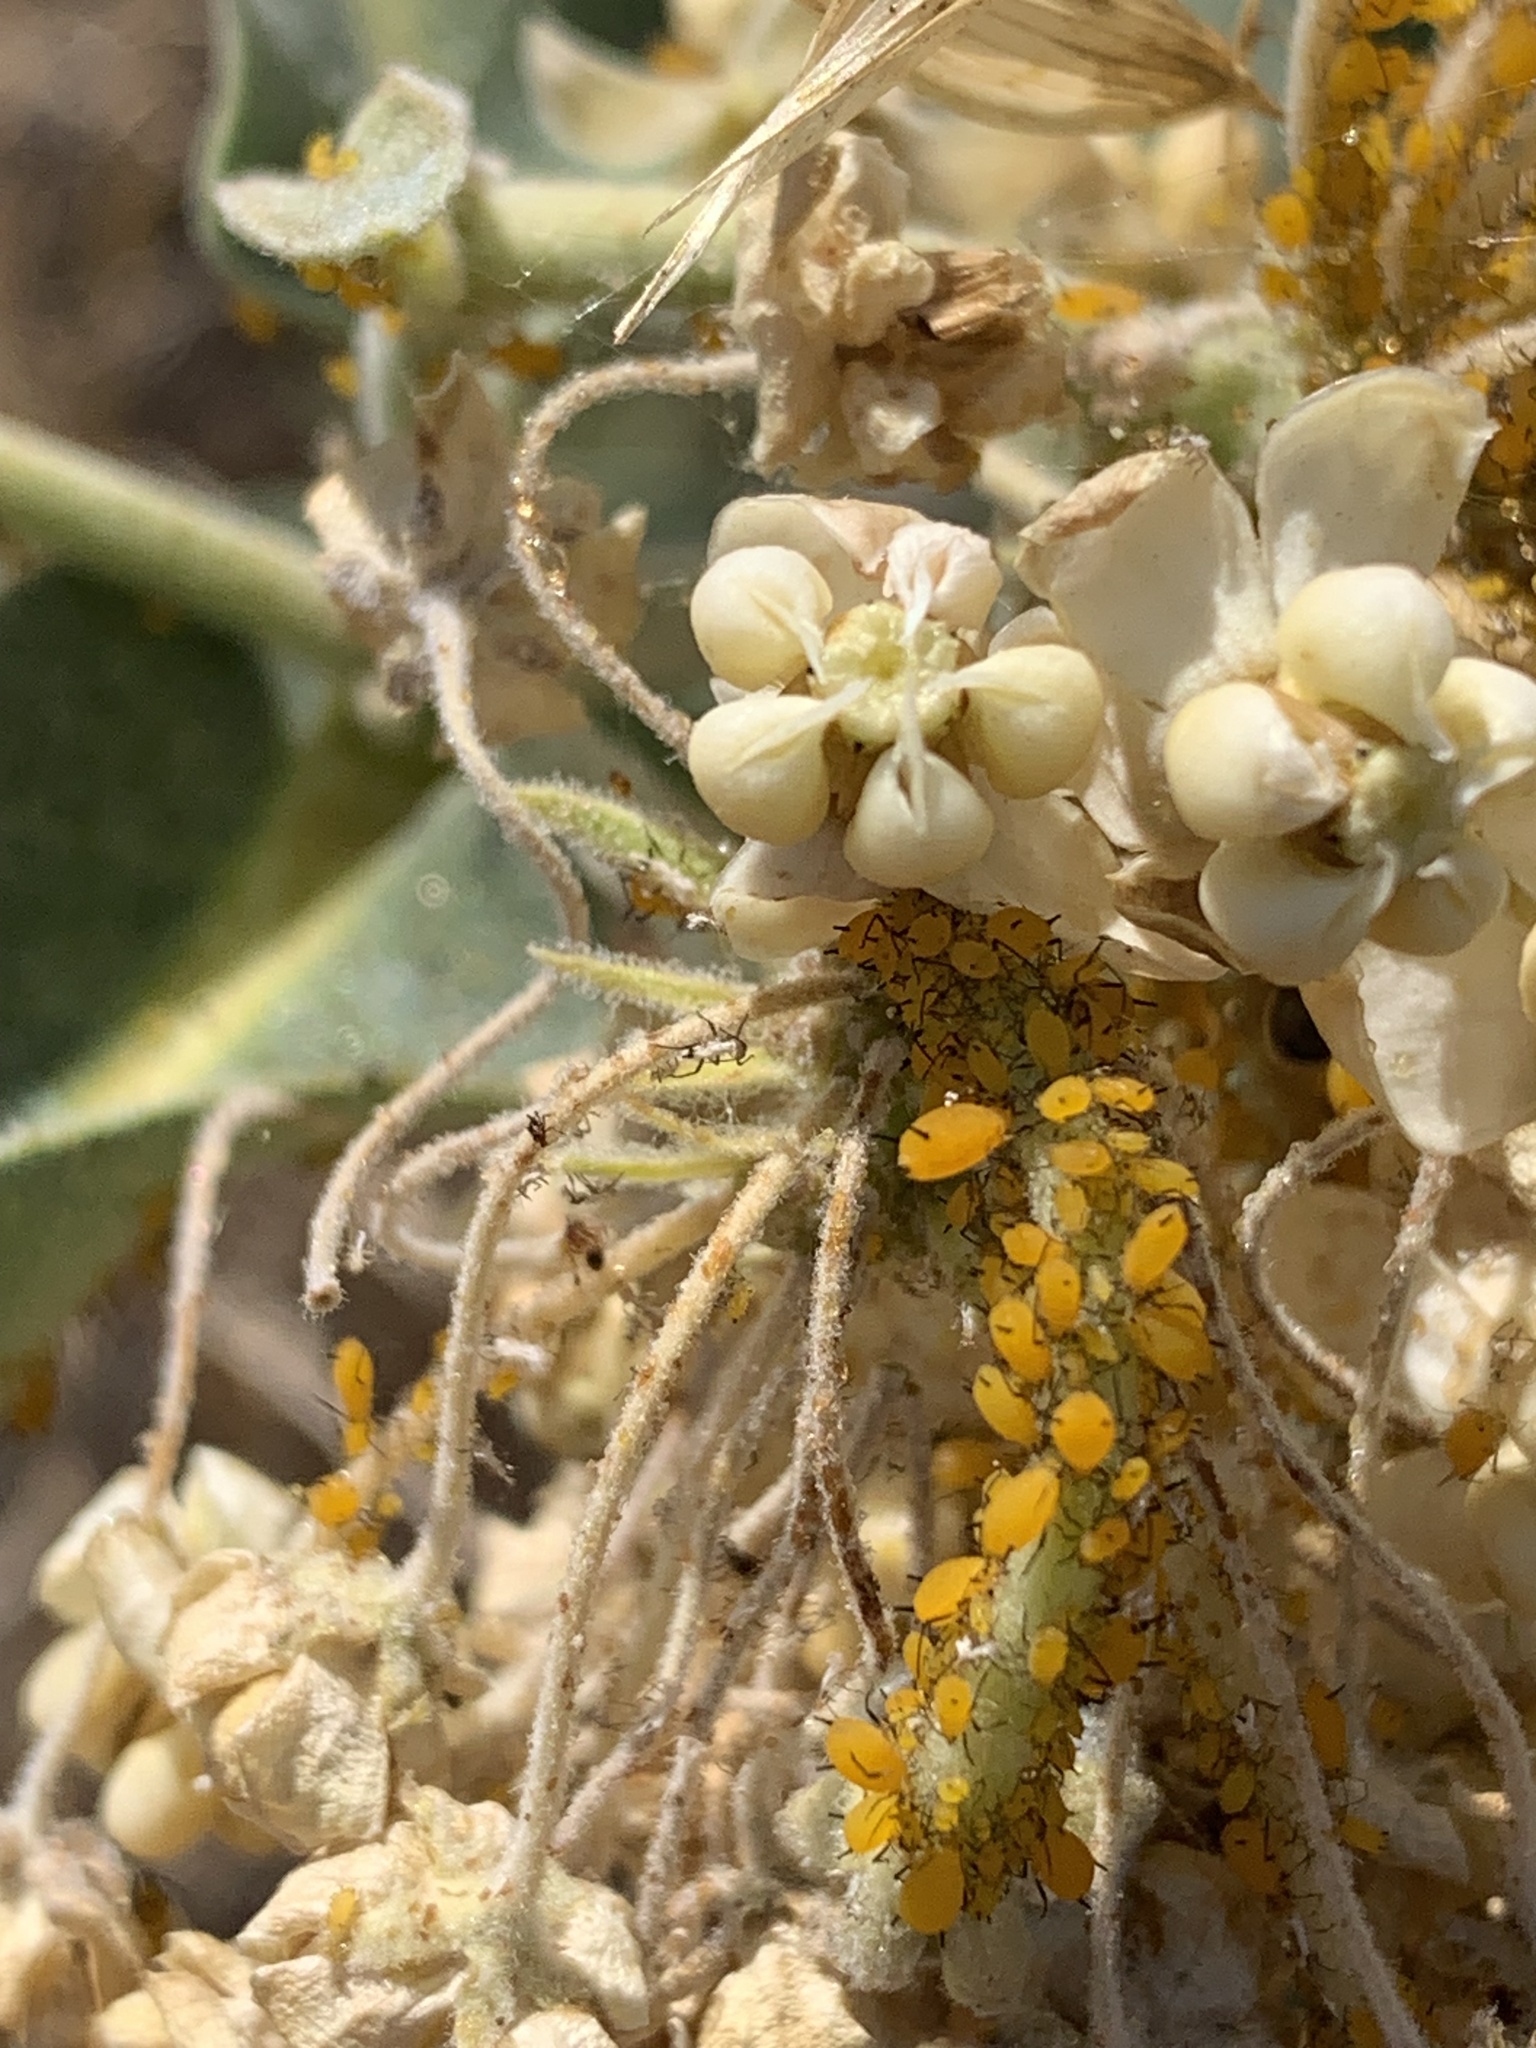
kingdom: Animalia
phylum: Arthropoda
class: Insecta
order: Hemiptera
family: Aphididae
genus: Aphis
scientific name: Aphis nerii
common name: Oleander aphid
